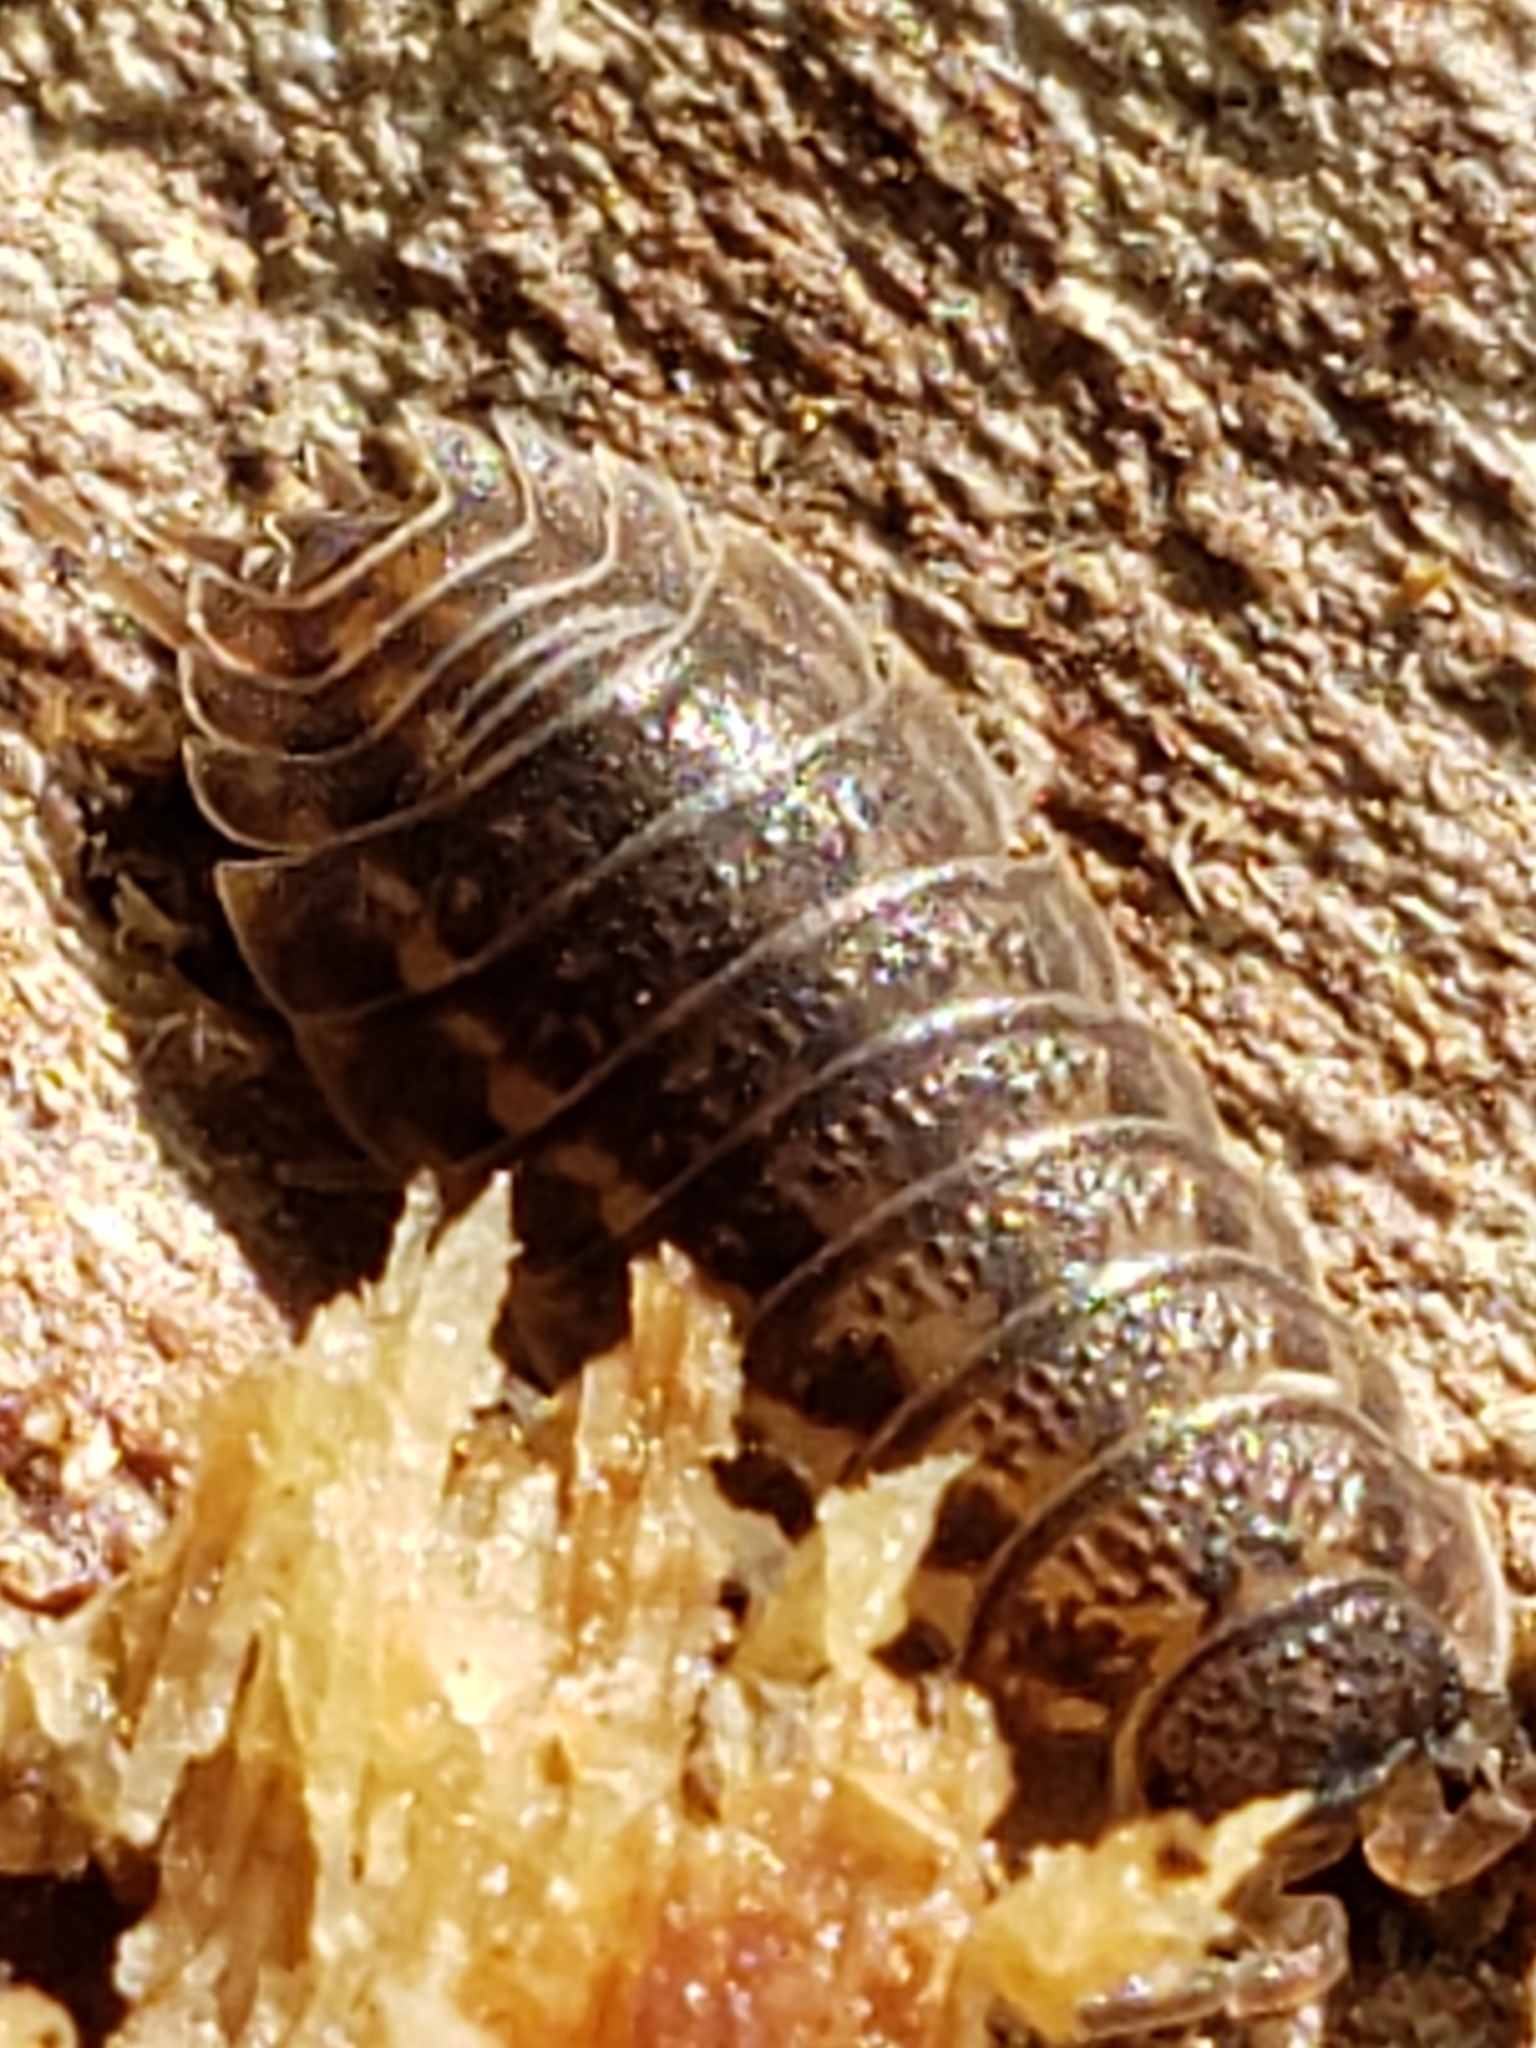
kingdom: Animalia
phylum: Arthropoda
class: Malacostraca
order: Isopoda
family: Trachelipodidae
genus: Trachelipus
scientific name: Trachelipus rathkii
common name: Isopod
